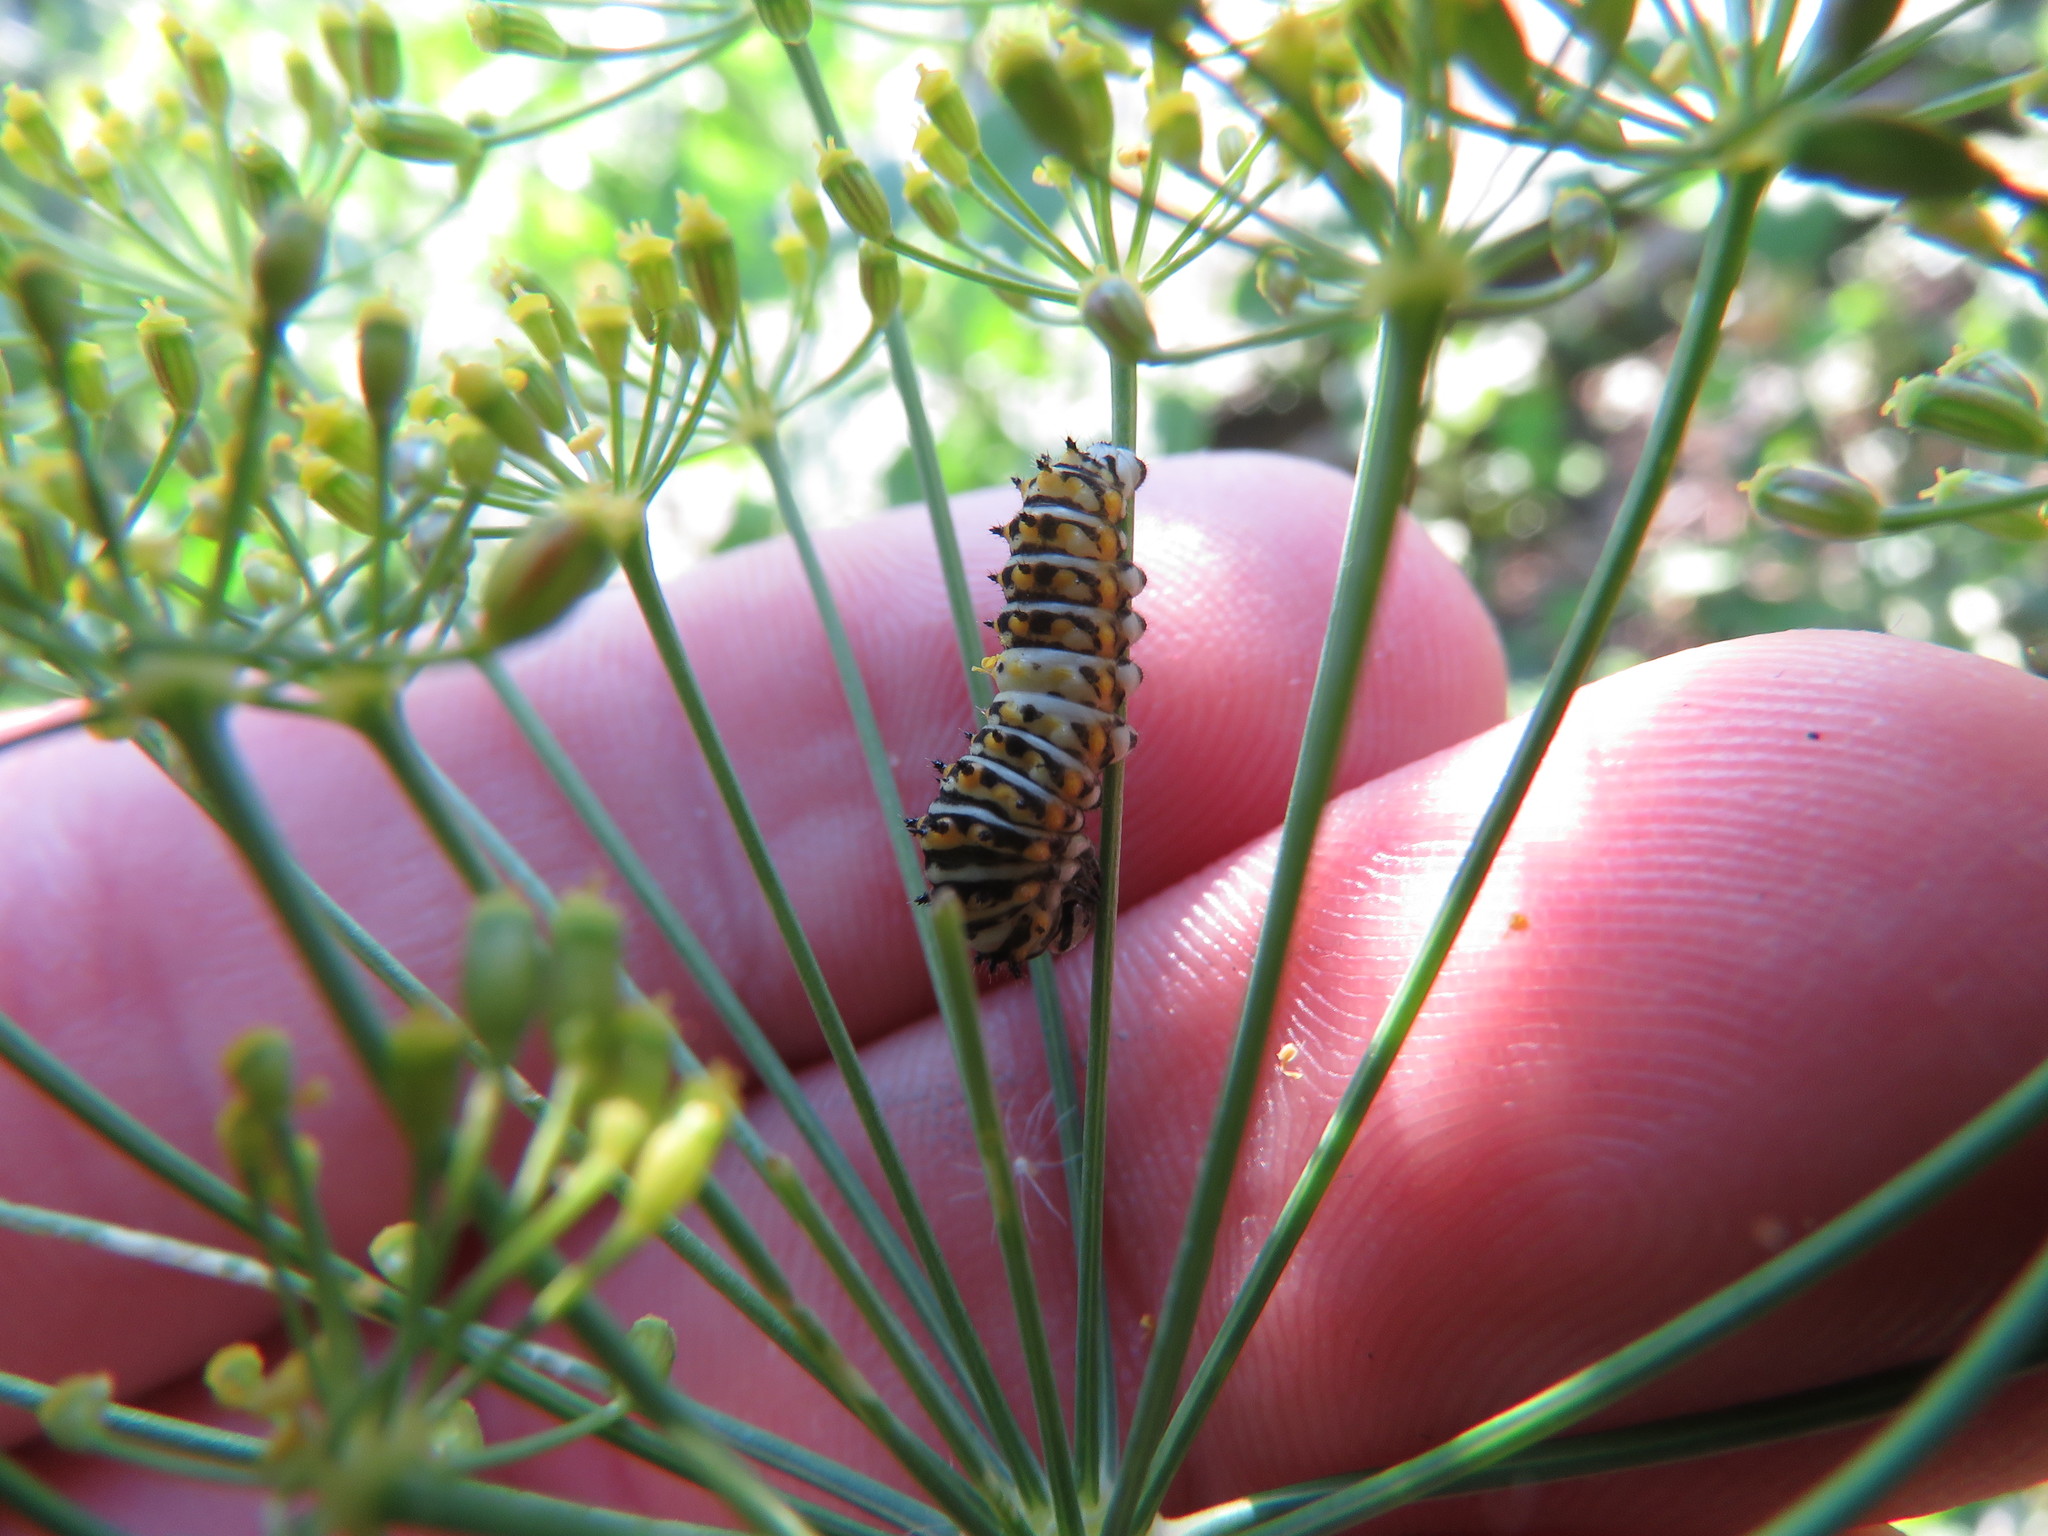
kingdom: Animalia
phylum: Arthropoda
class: Insecta
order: Lepidoptera
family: Papilionidae
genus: Papilio
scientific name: Papilio polyxenes
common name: Black swallowtail
